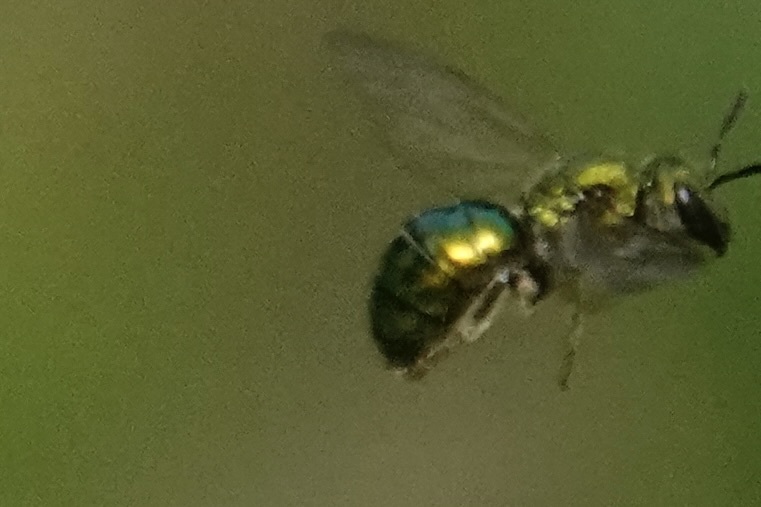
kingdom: Animalia
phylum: Arthropoda
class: Insecta
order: Hymenoptera
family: Halictidae
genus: Augochlora
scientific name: Augochlora pura
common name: Pure green sweat bee
